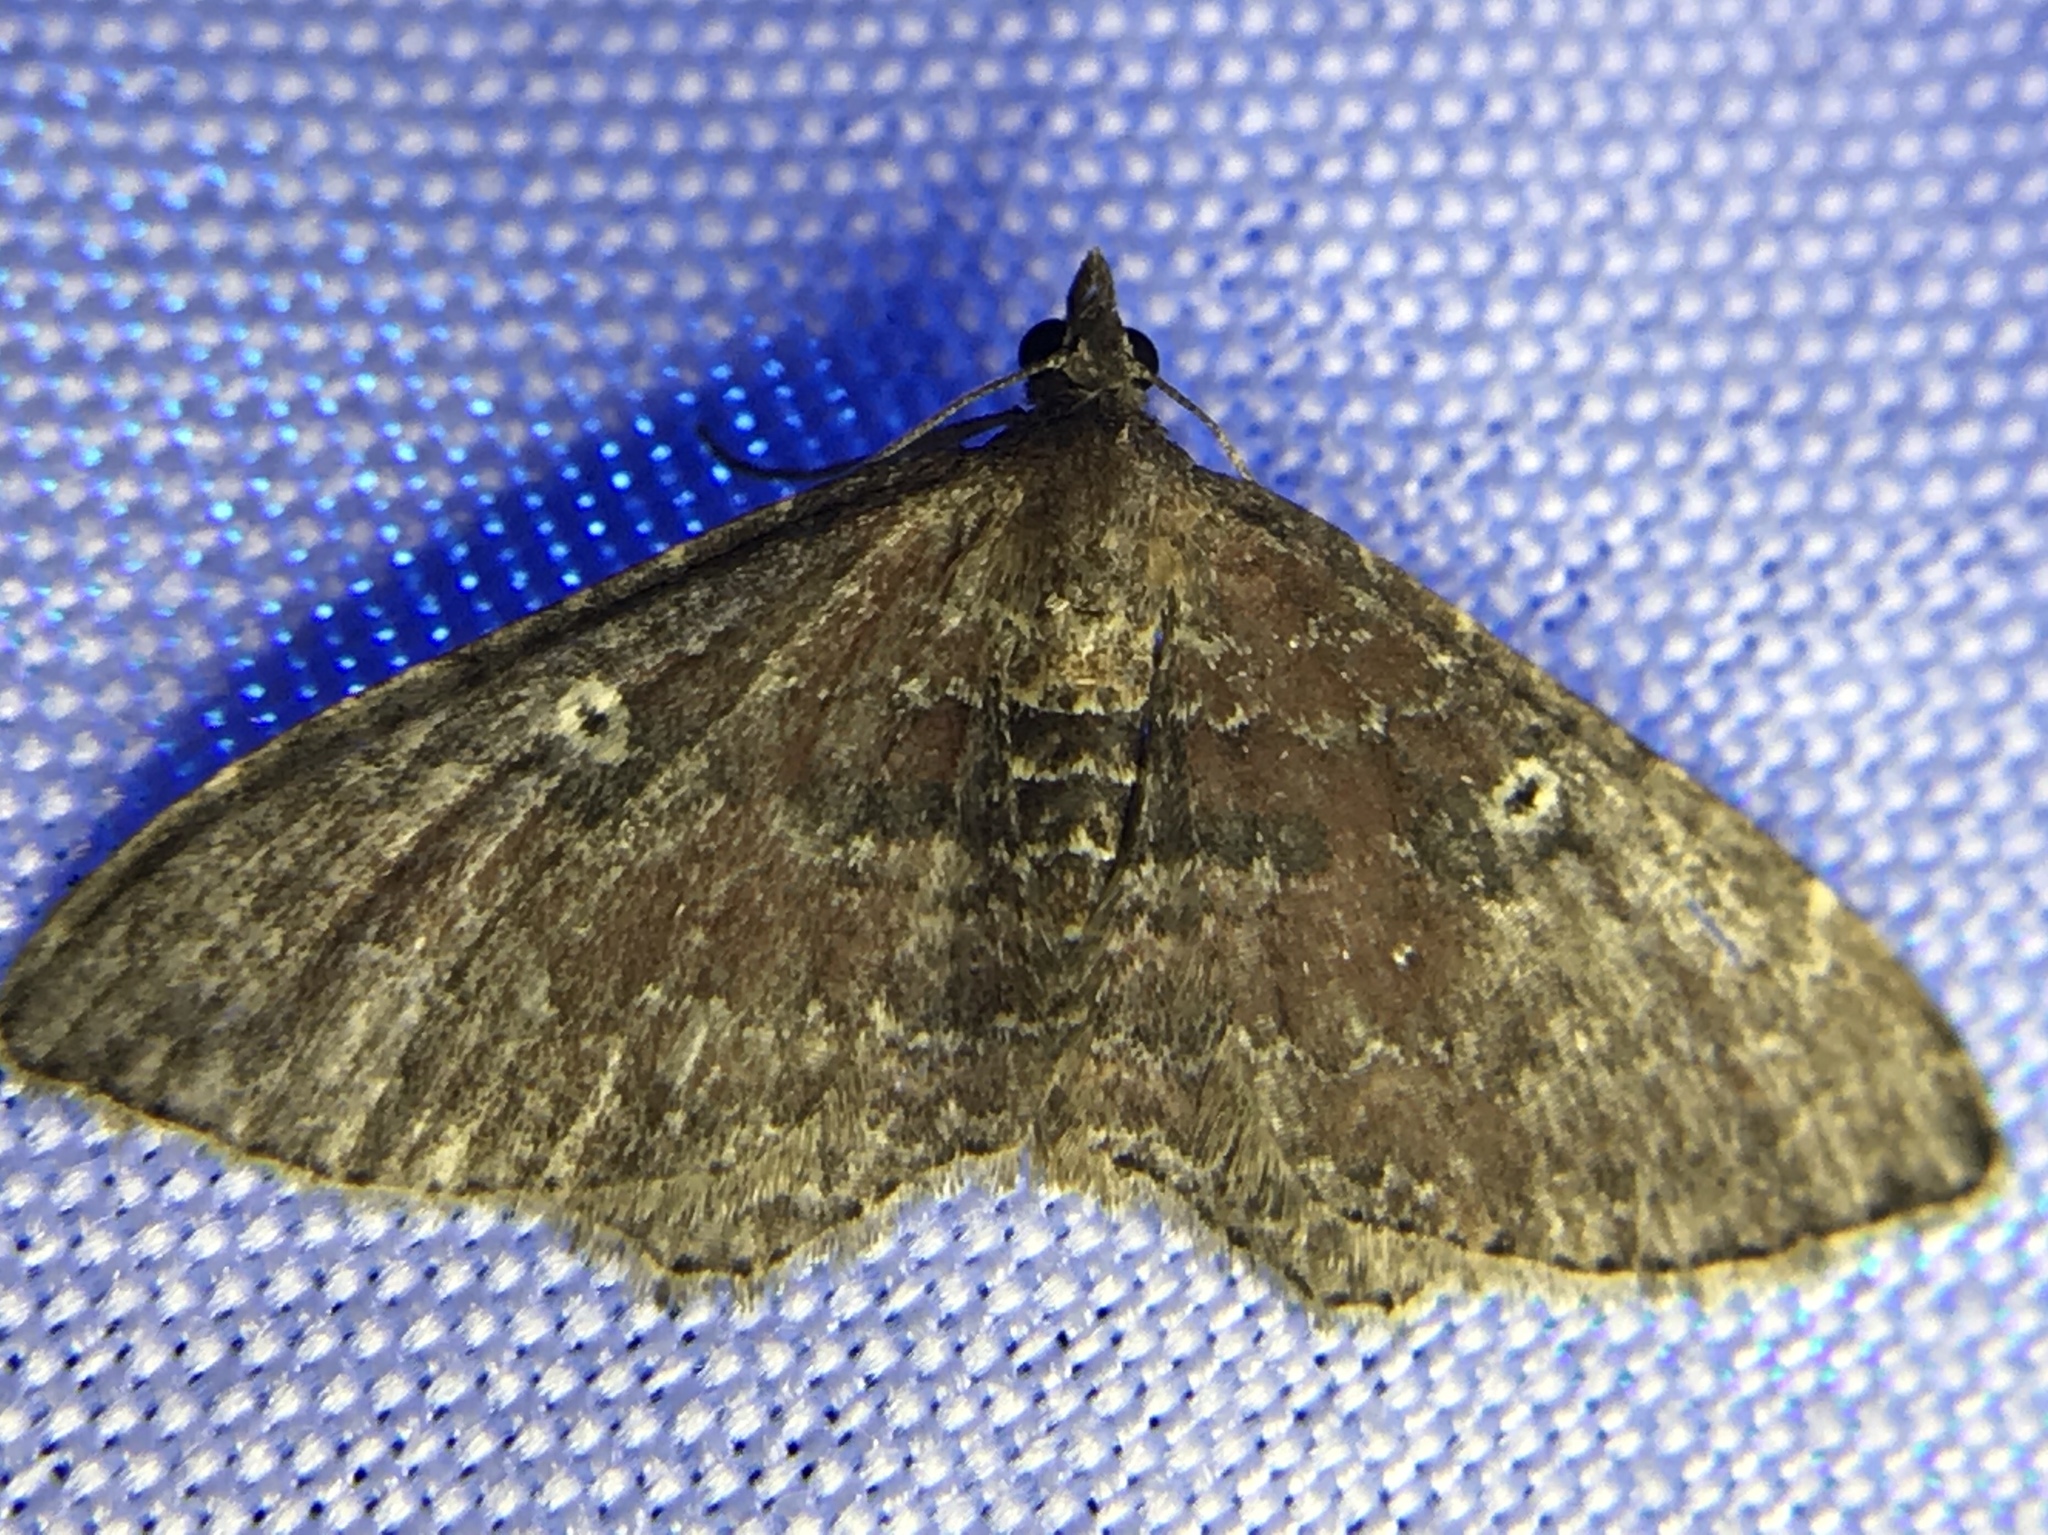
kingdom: Animalia
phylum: Arthropoda
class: Insecta
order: Lepidoptera
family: Geometridae
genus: Orthonama
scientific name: Orthonama obstipata
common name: The gem
